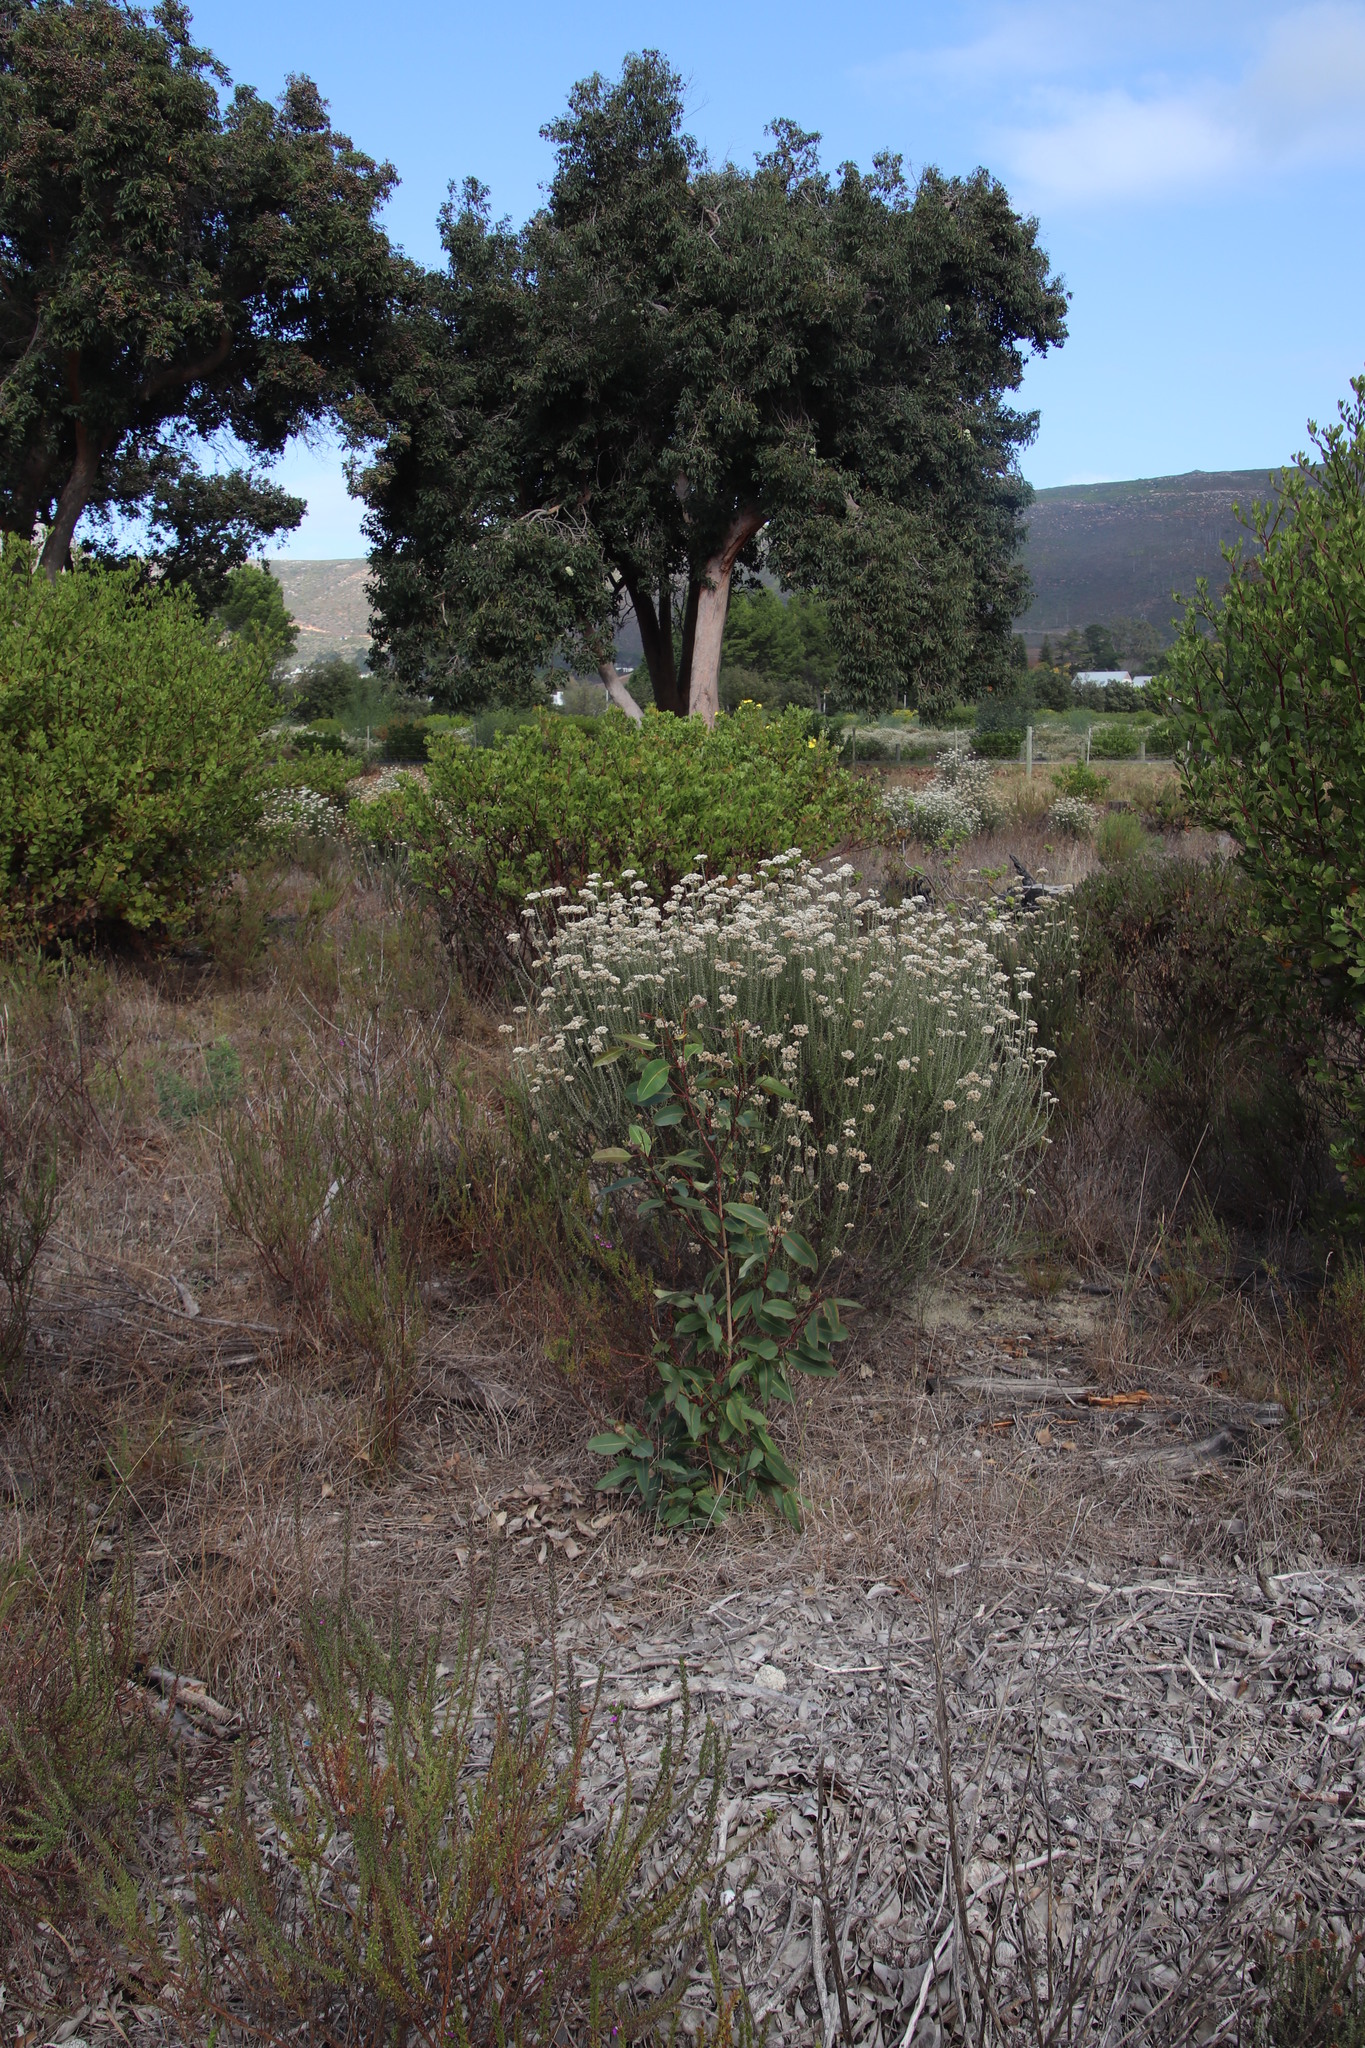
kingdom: Plantae
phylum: Tracheophyta
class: Magnoliopsida
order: Myrtales
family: Myrtaceae
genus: Corymbia
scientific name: Corymbia ficifolia
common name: Redflower gum
